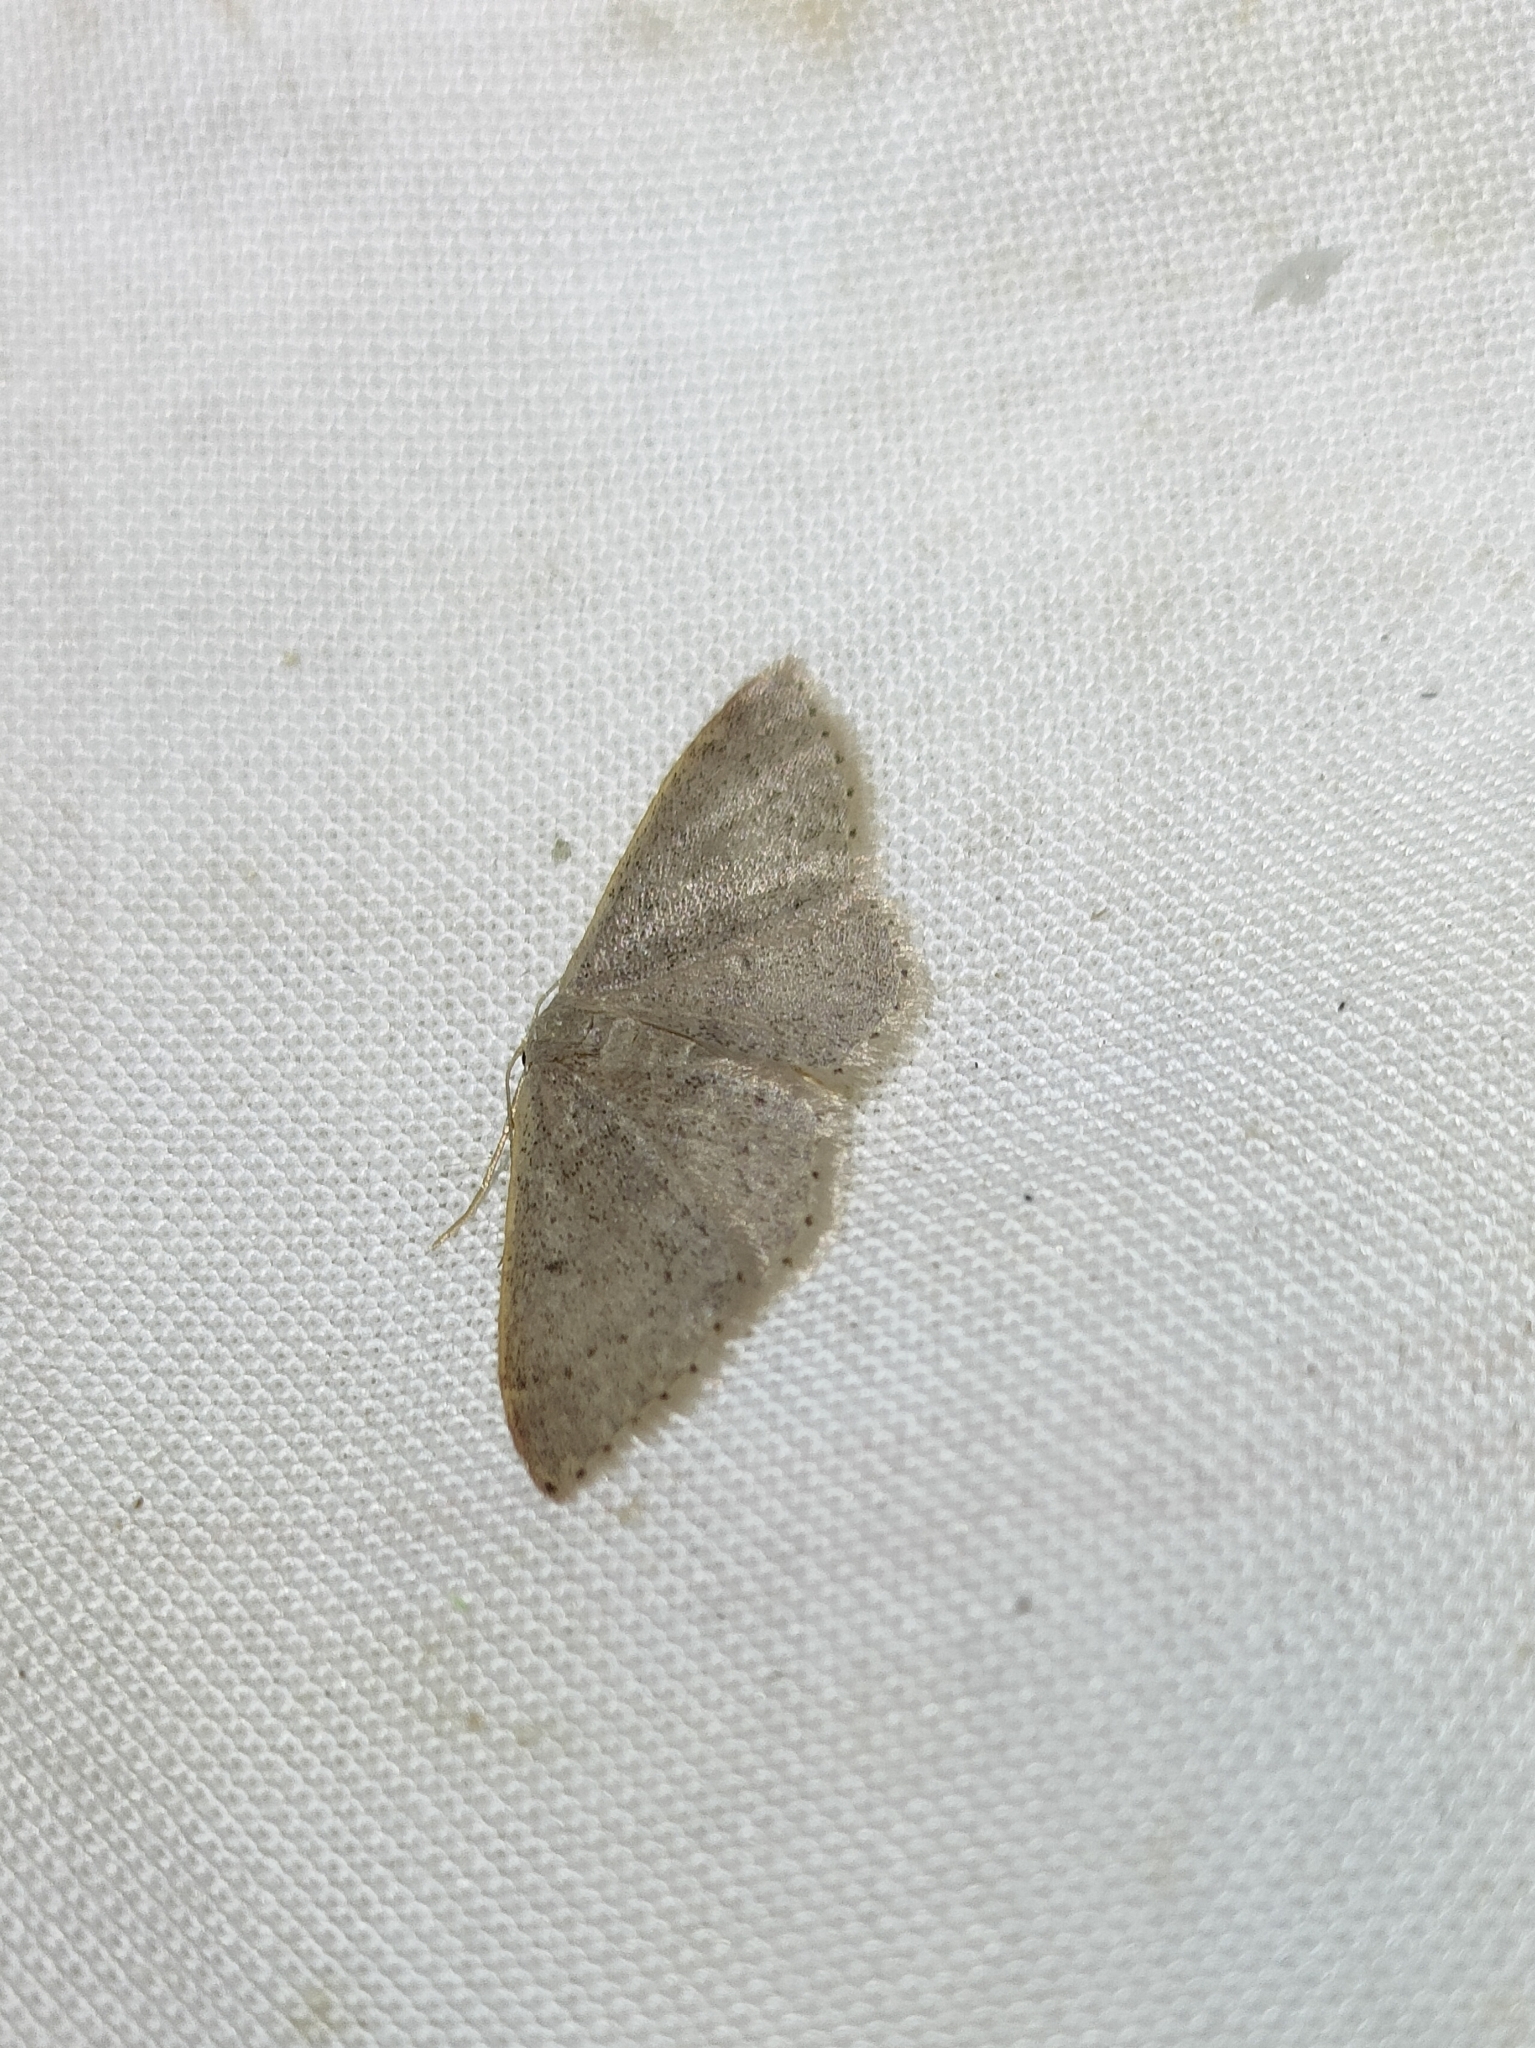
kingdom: Animalia
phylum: Arthropoda
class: Insecta
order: Lepidoptera
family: Geometridae
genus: Idaea
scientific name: Idaea eugeniata
